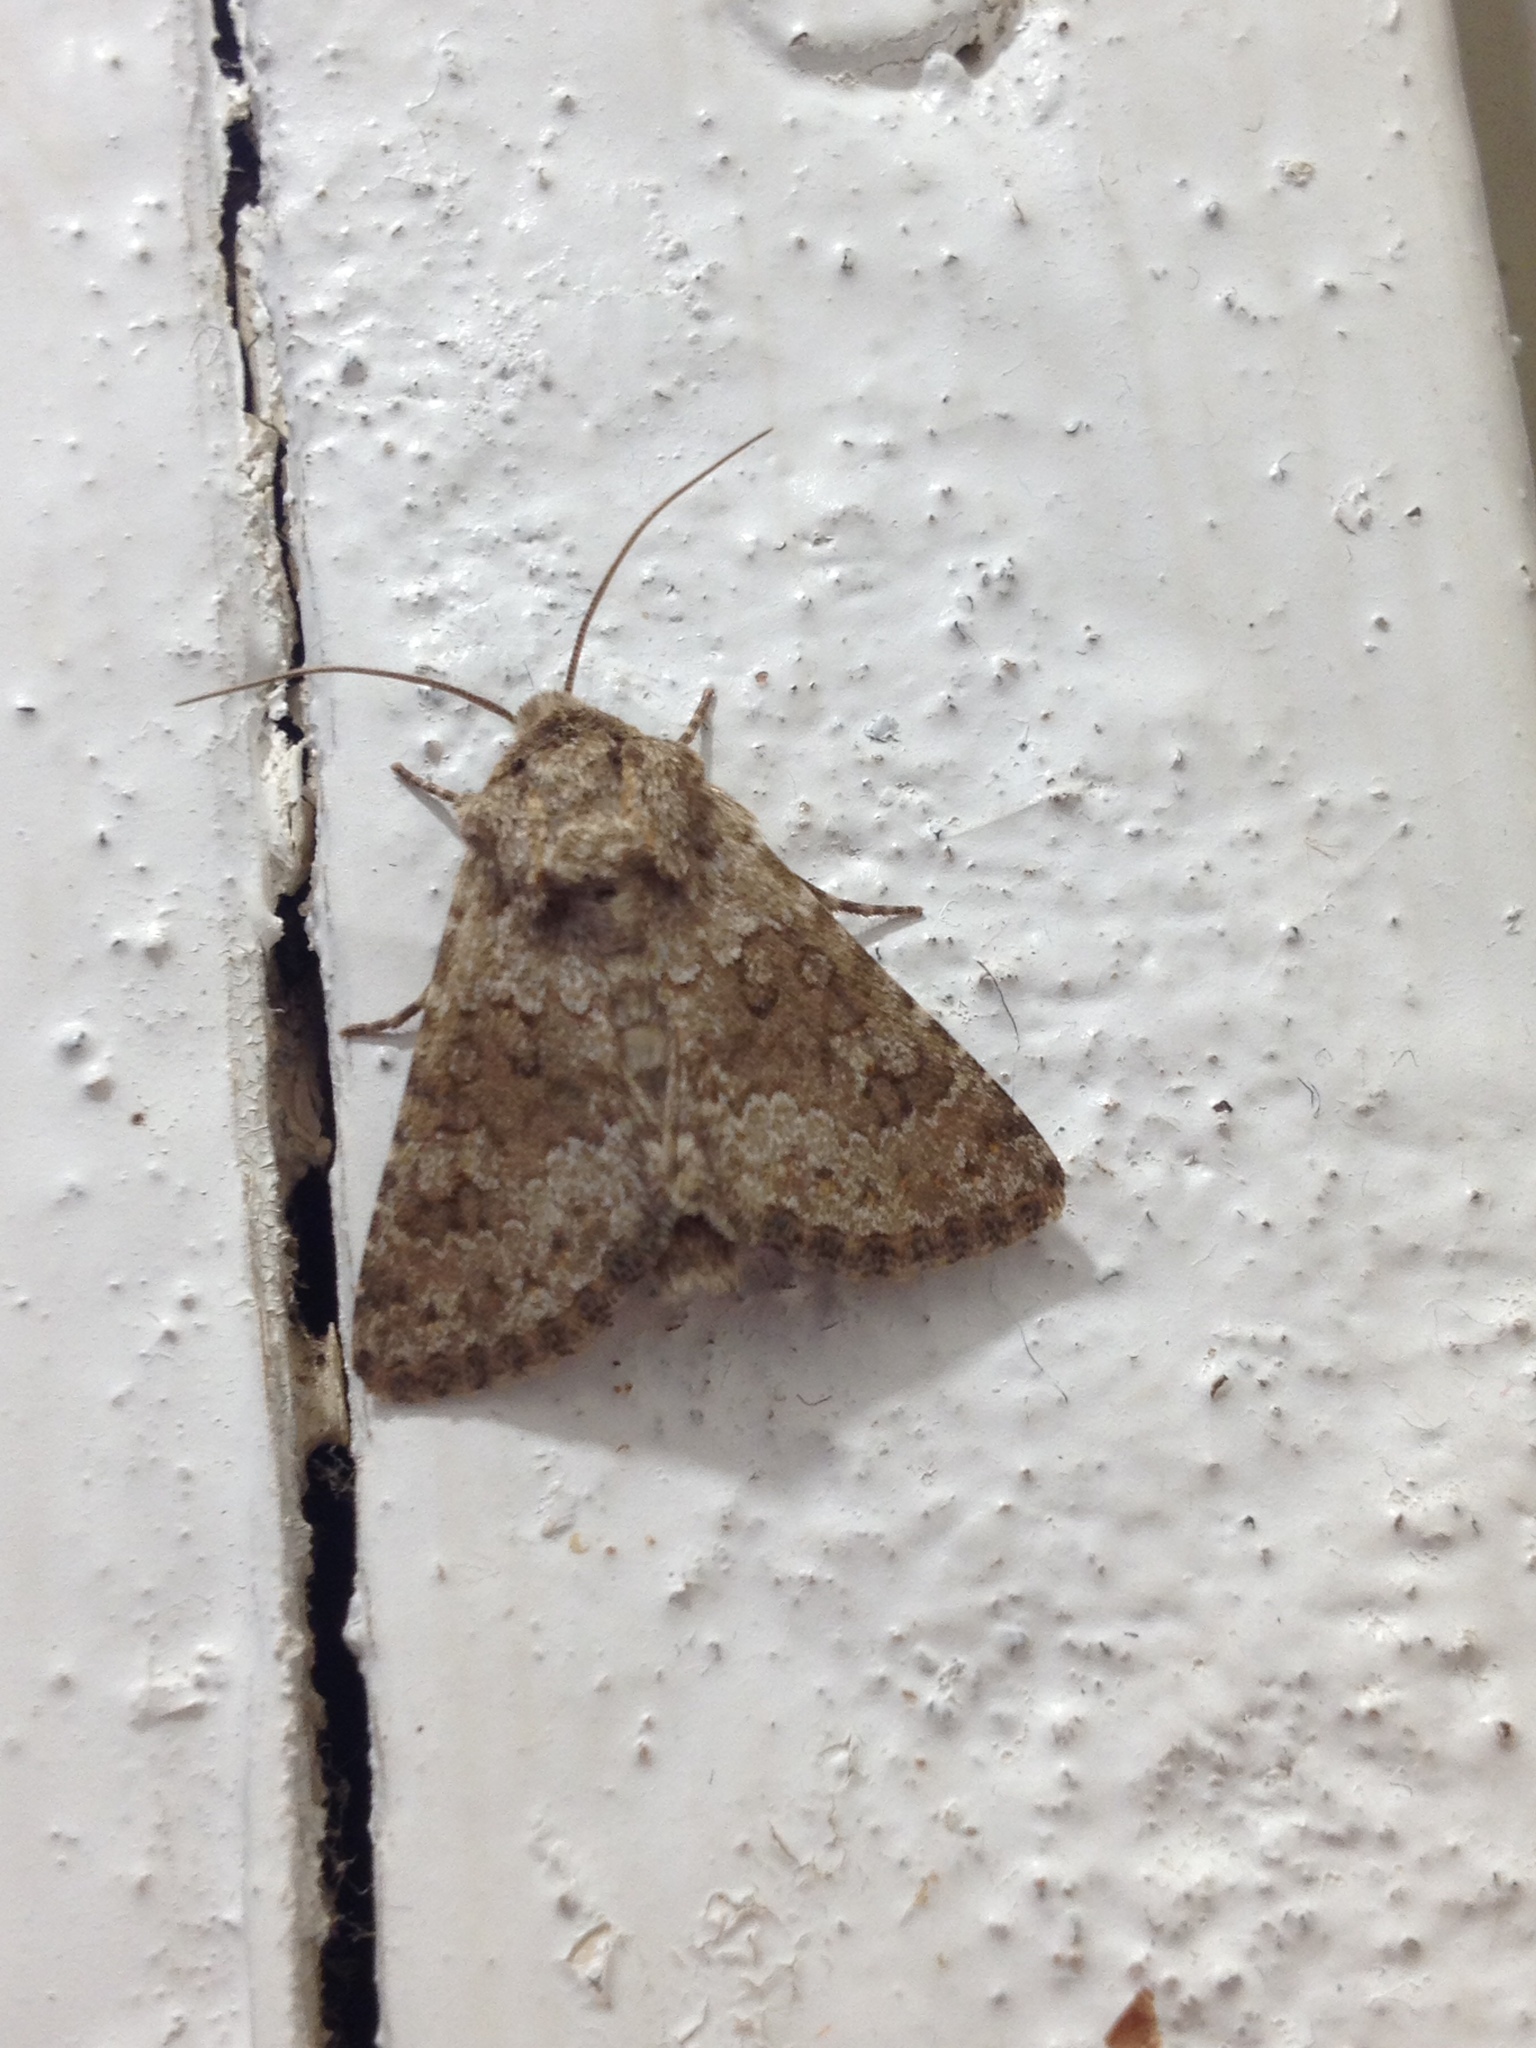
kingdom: Animalia
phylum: Arthropoda
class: Insecta
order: Lepidoptera
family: Noctuidae
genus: Hecatera
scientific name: Hecatera dysodea
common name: Small ranunculus
